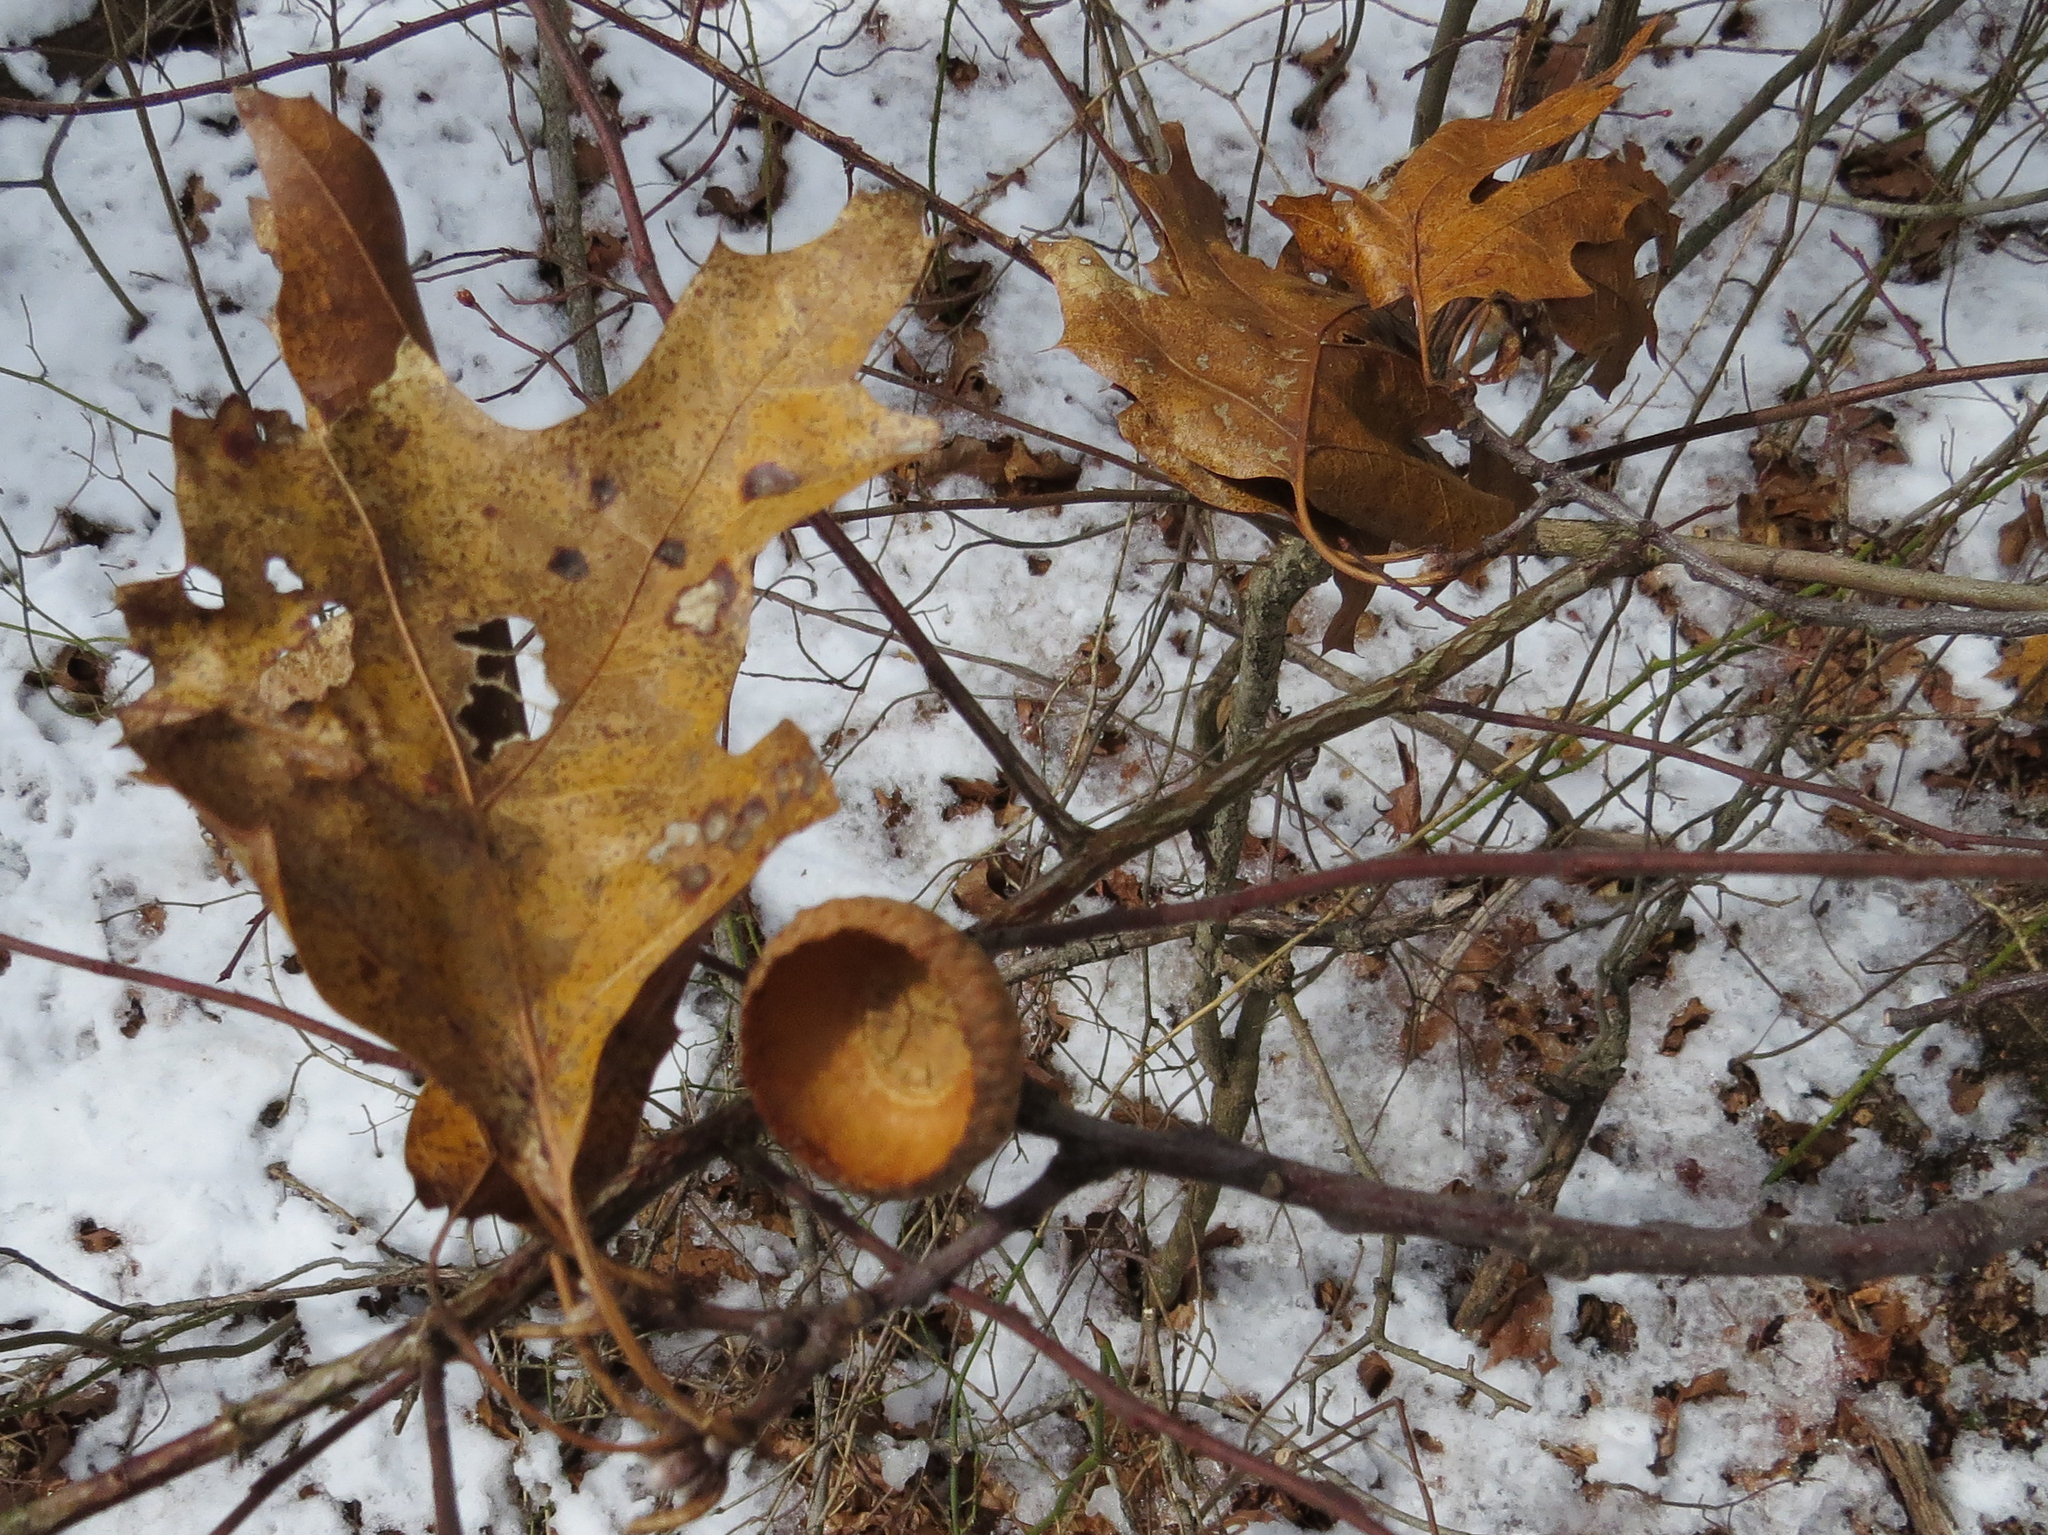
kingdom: Plantae
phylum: Tracheophyta
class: Magnoliopsida
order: Fagales
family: Fagaceae
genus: Quercus
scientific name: Quercus
